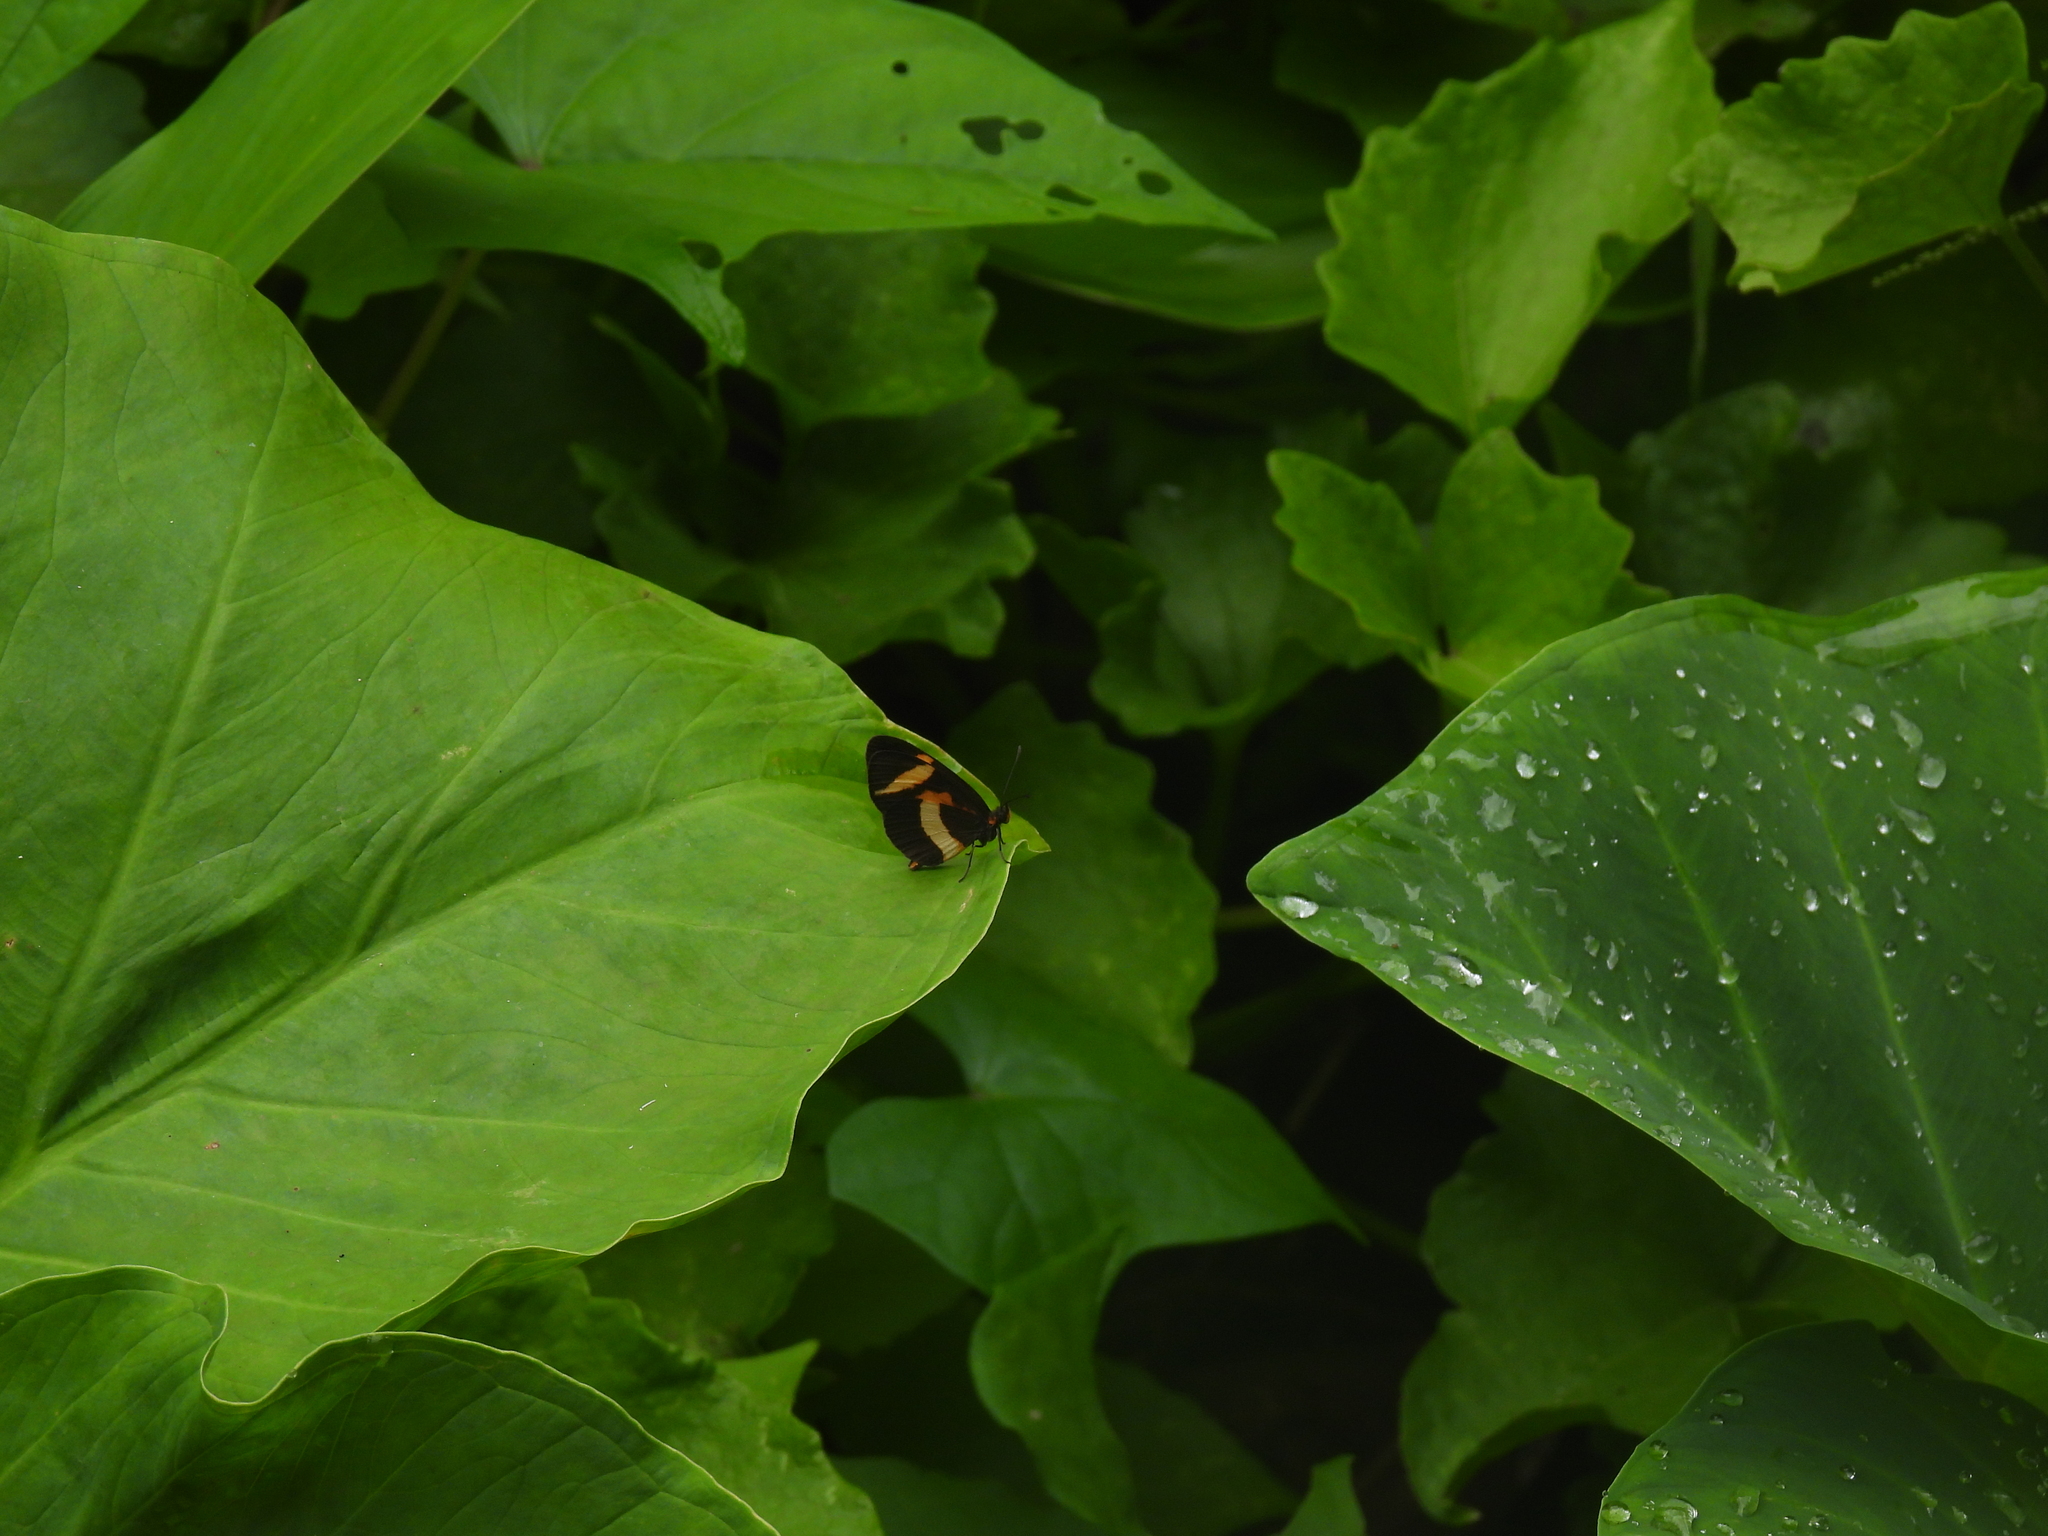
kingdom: Animalia
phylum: Arthropoda
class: Insecta
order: Lepidoptera
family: Nymphalidae
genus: Microtia
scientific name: Microtia elva
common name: Elf
